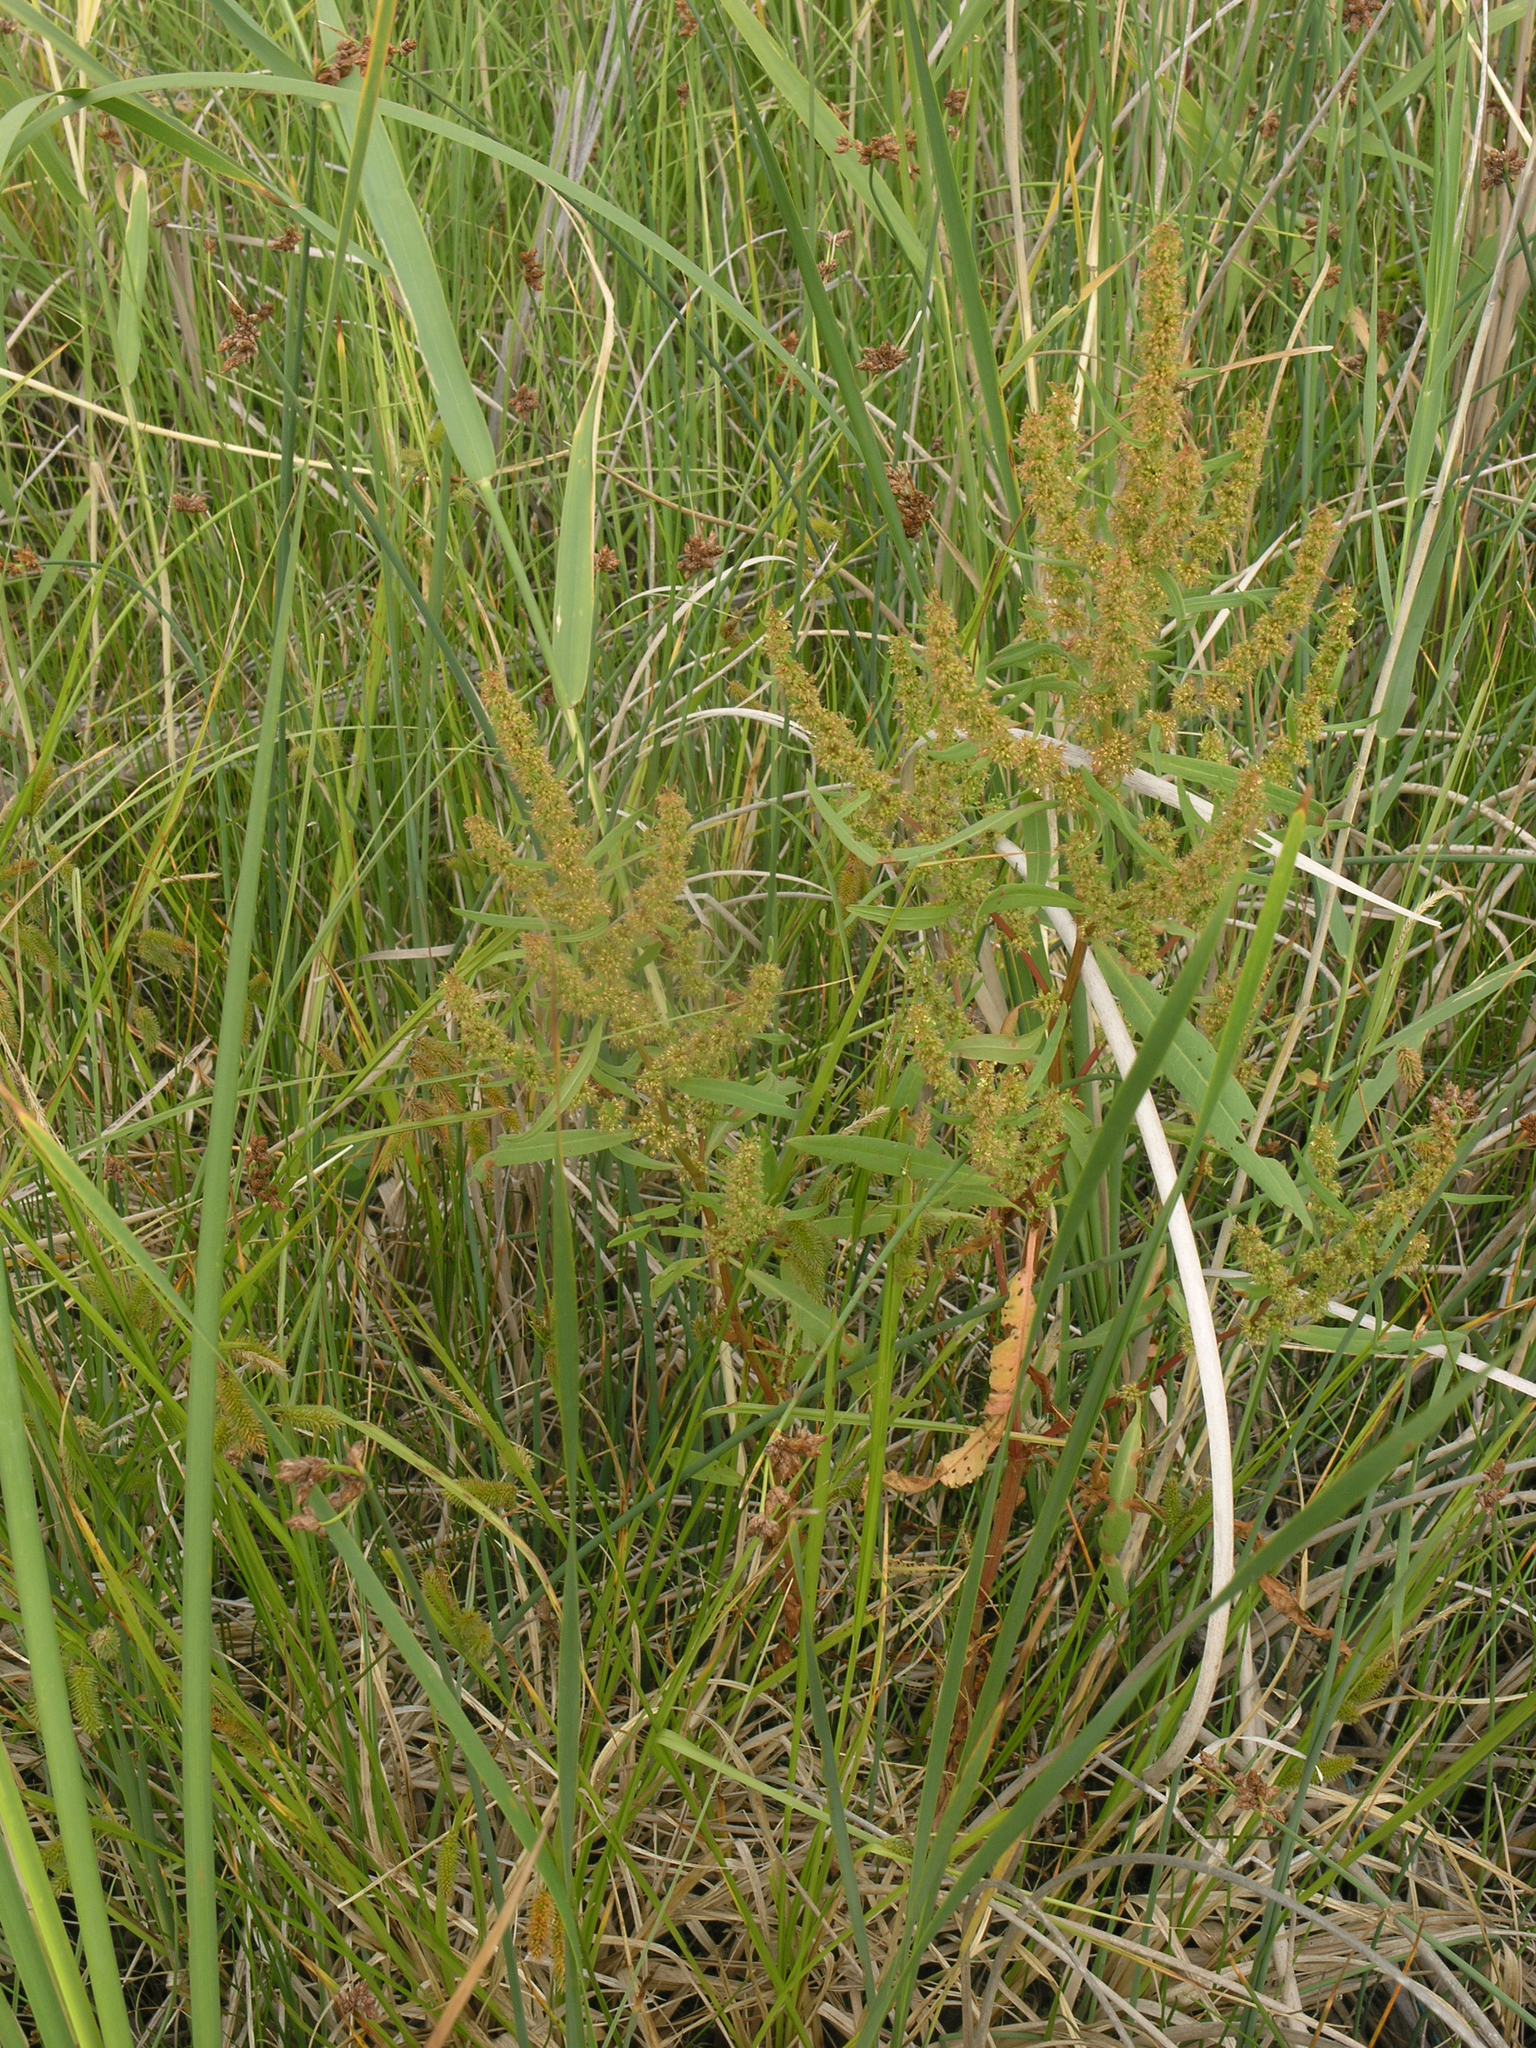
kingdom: Plantae
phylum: Tracheophyta
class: Magnoliopsida
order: Caryophyllales
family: Polygonaceae
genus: Rumex
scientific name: Rumex maritimus
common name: Golden dock
